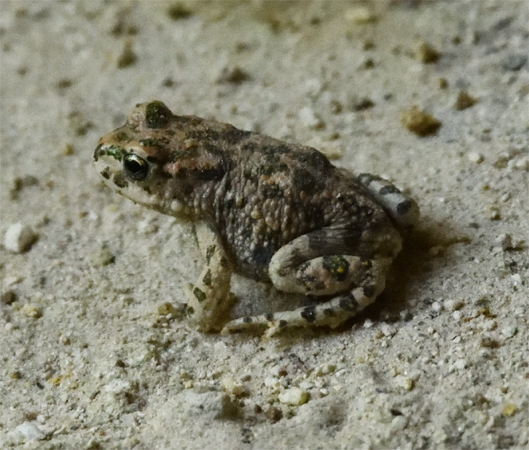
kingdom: Animalia
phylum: Chordata
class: Amphibia
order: Anura
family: Bufonidae
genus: Bufotes
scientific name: Bufotes viridis
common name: European green toad
